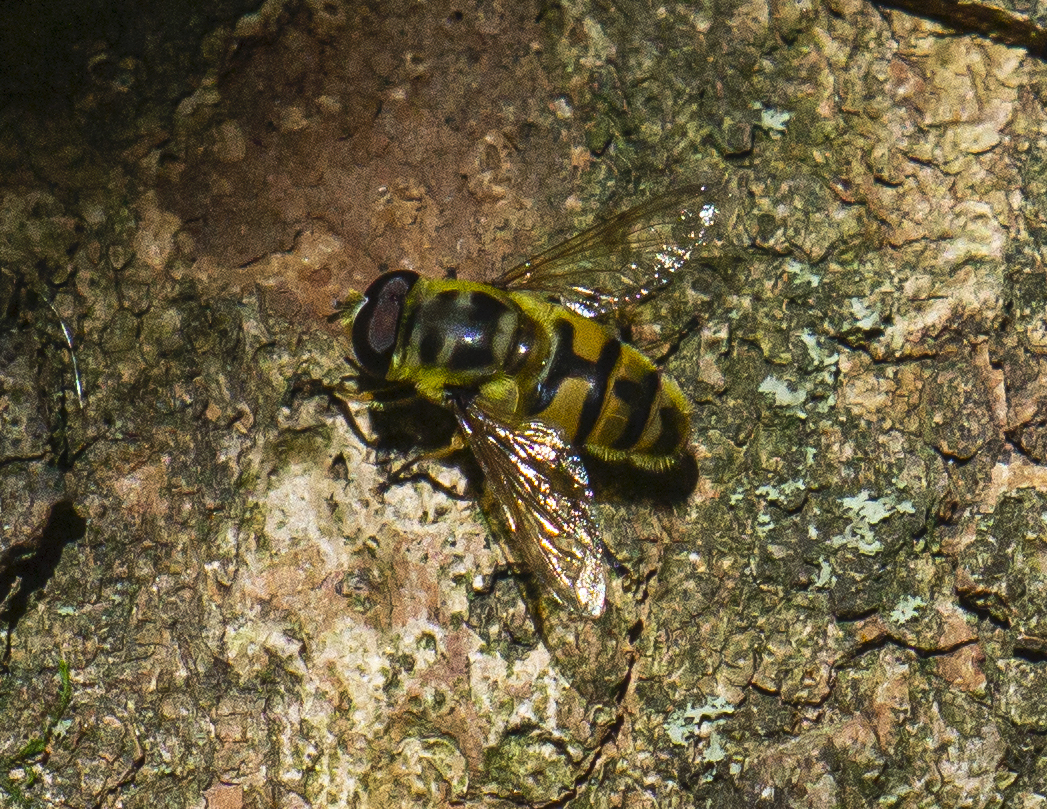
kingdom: Animalia
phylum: Arthropoda
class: Insecta
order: Diptera
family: Syrphidae
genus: Myathropa
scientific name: Myathropa florea
